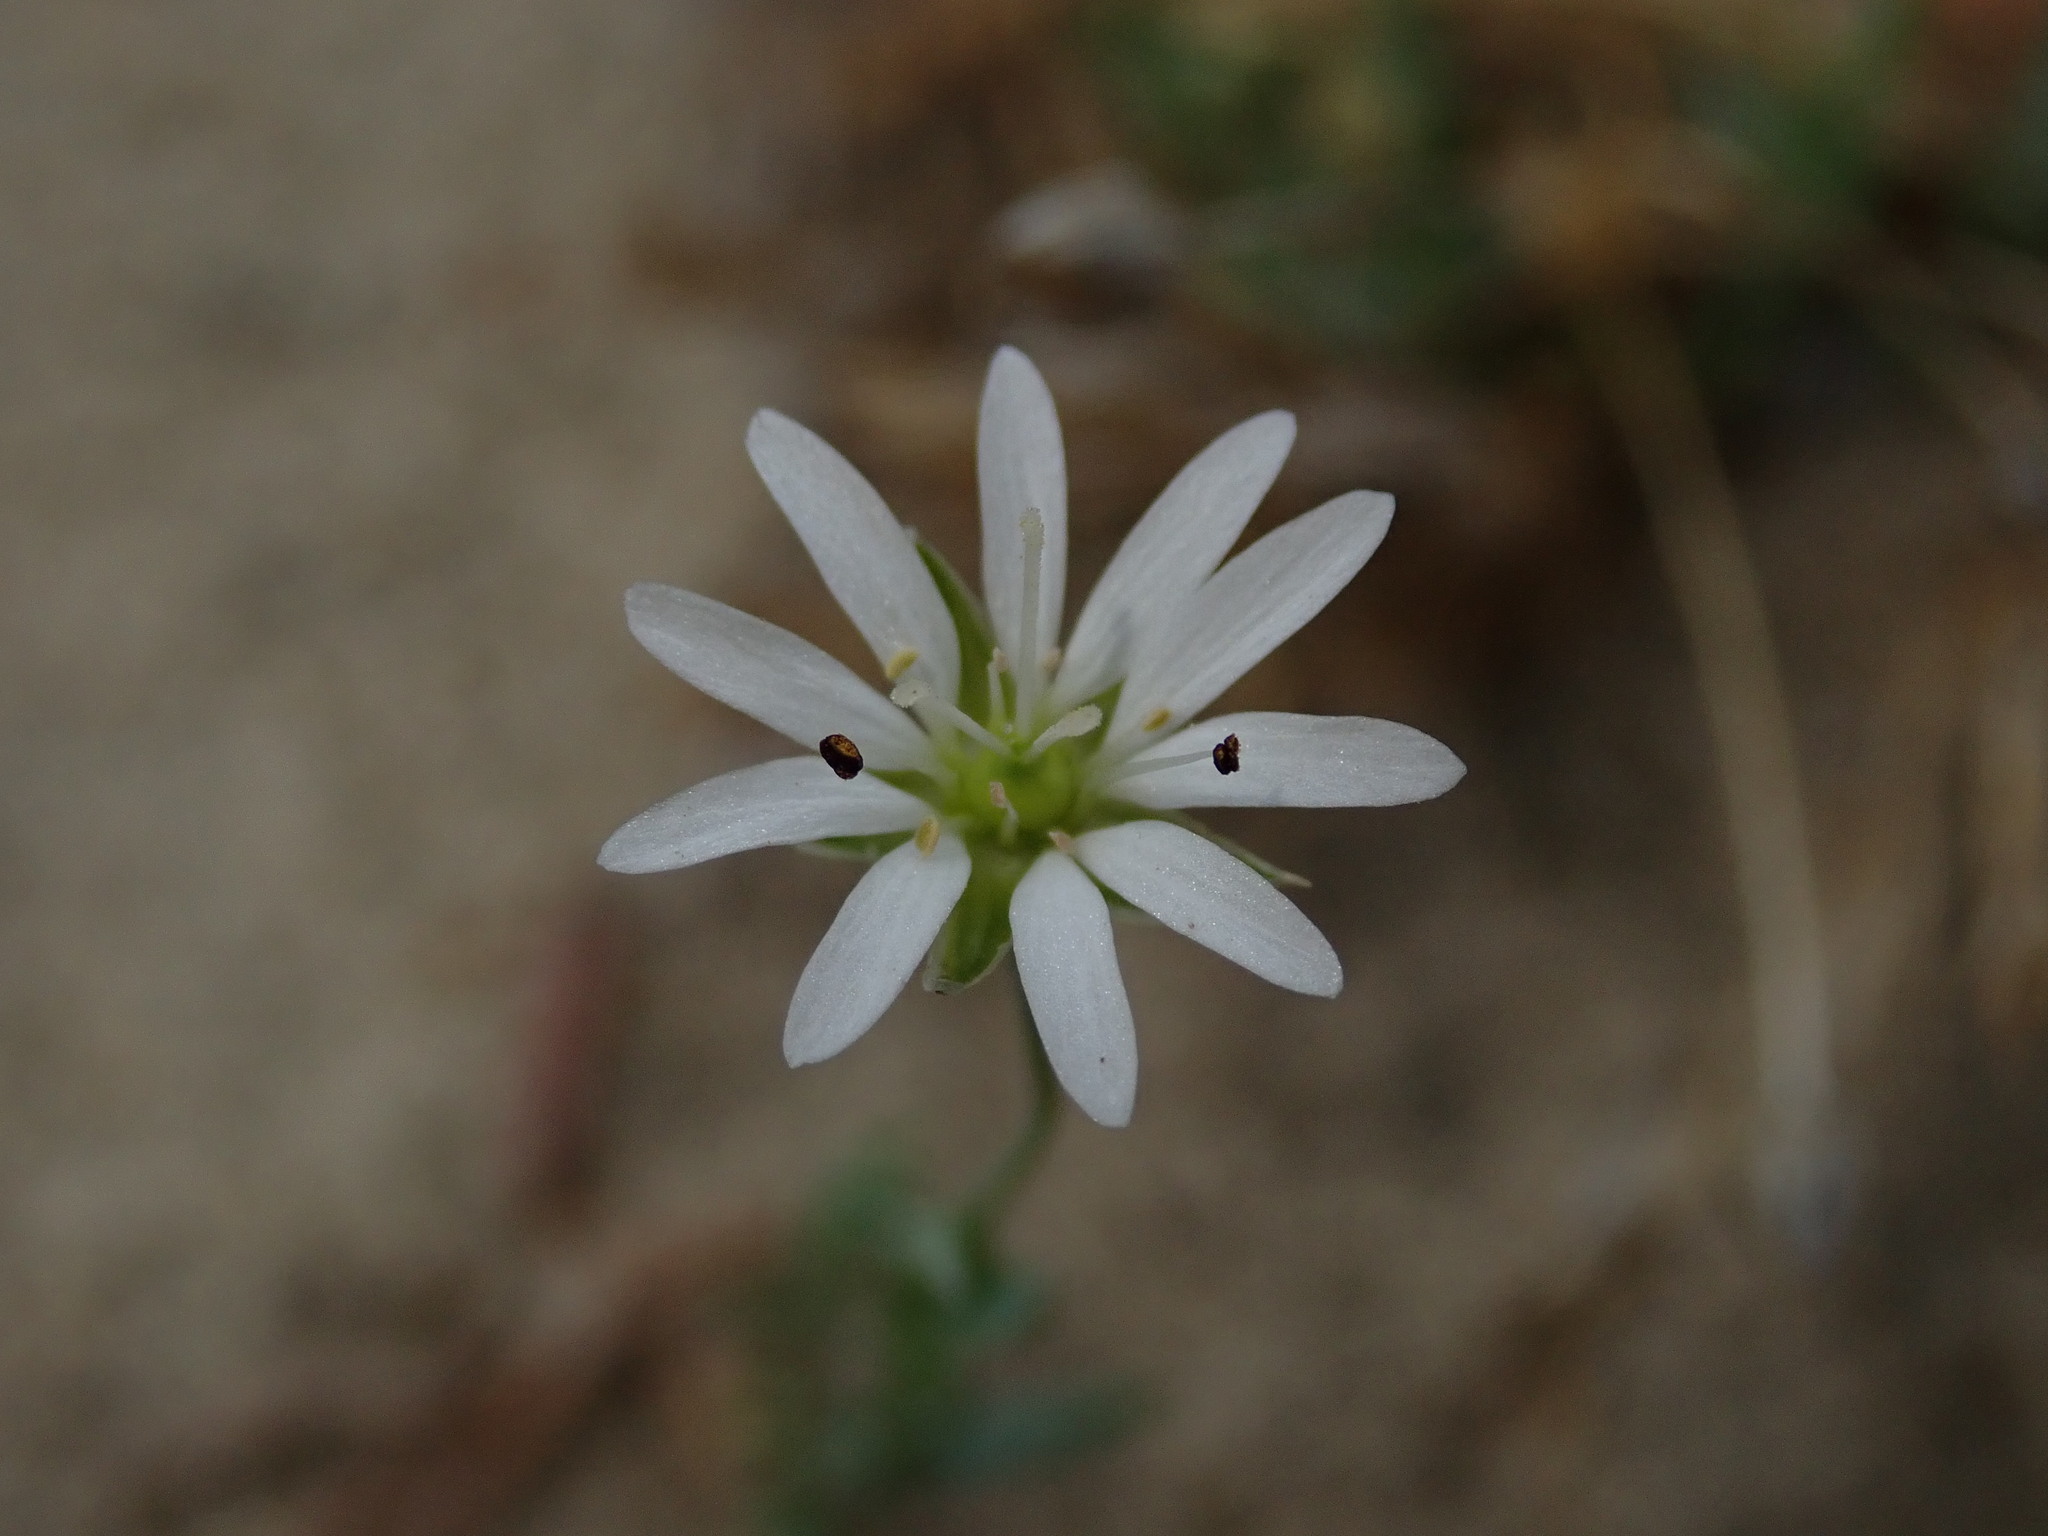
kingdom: Plantae
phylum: Tracheophyta
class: Magnoliopsida
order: Caryophyllales
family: Caryophyllaceae
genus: Stellaria
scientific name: Stellaria longipes
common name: Goldie's starwort
